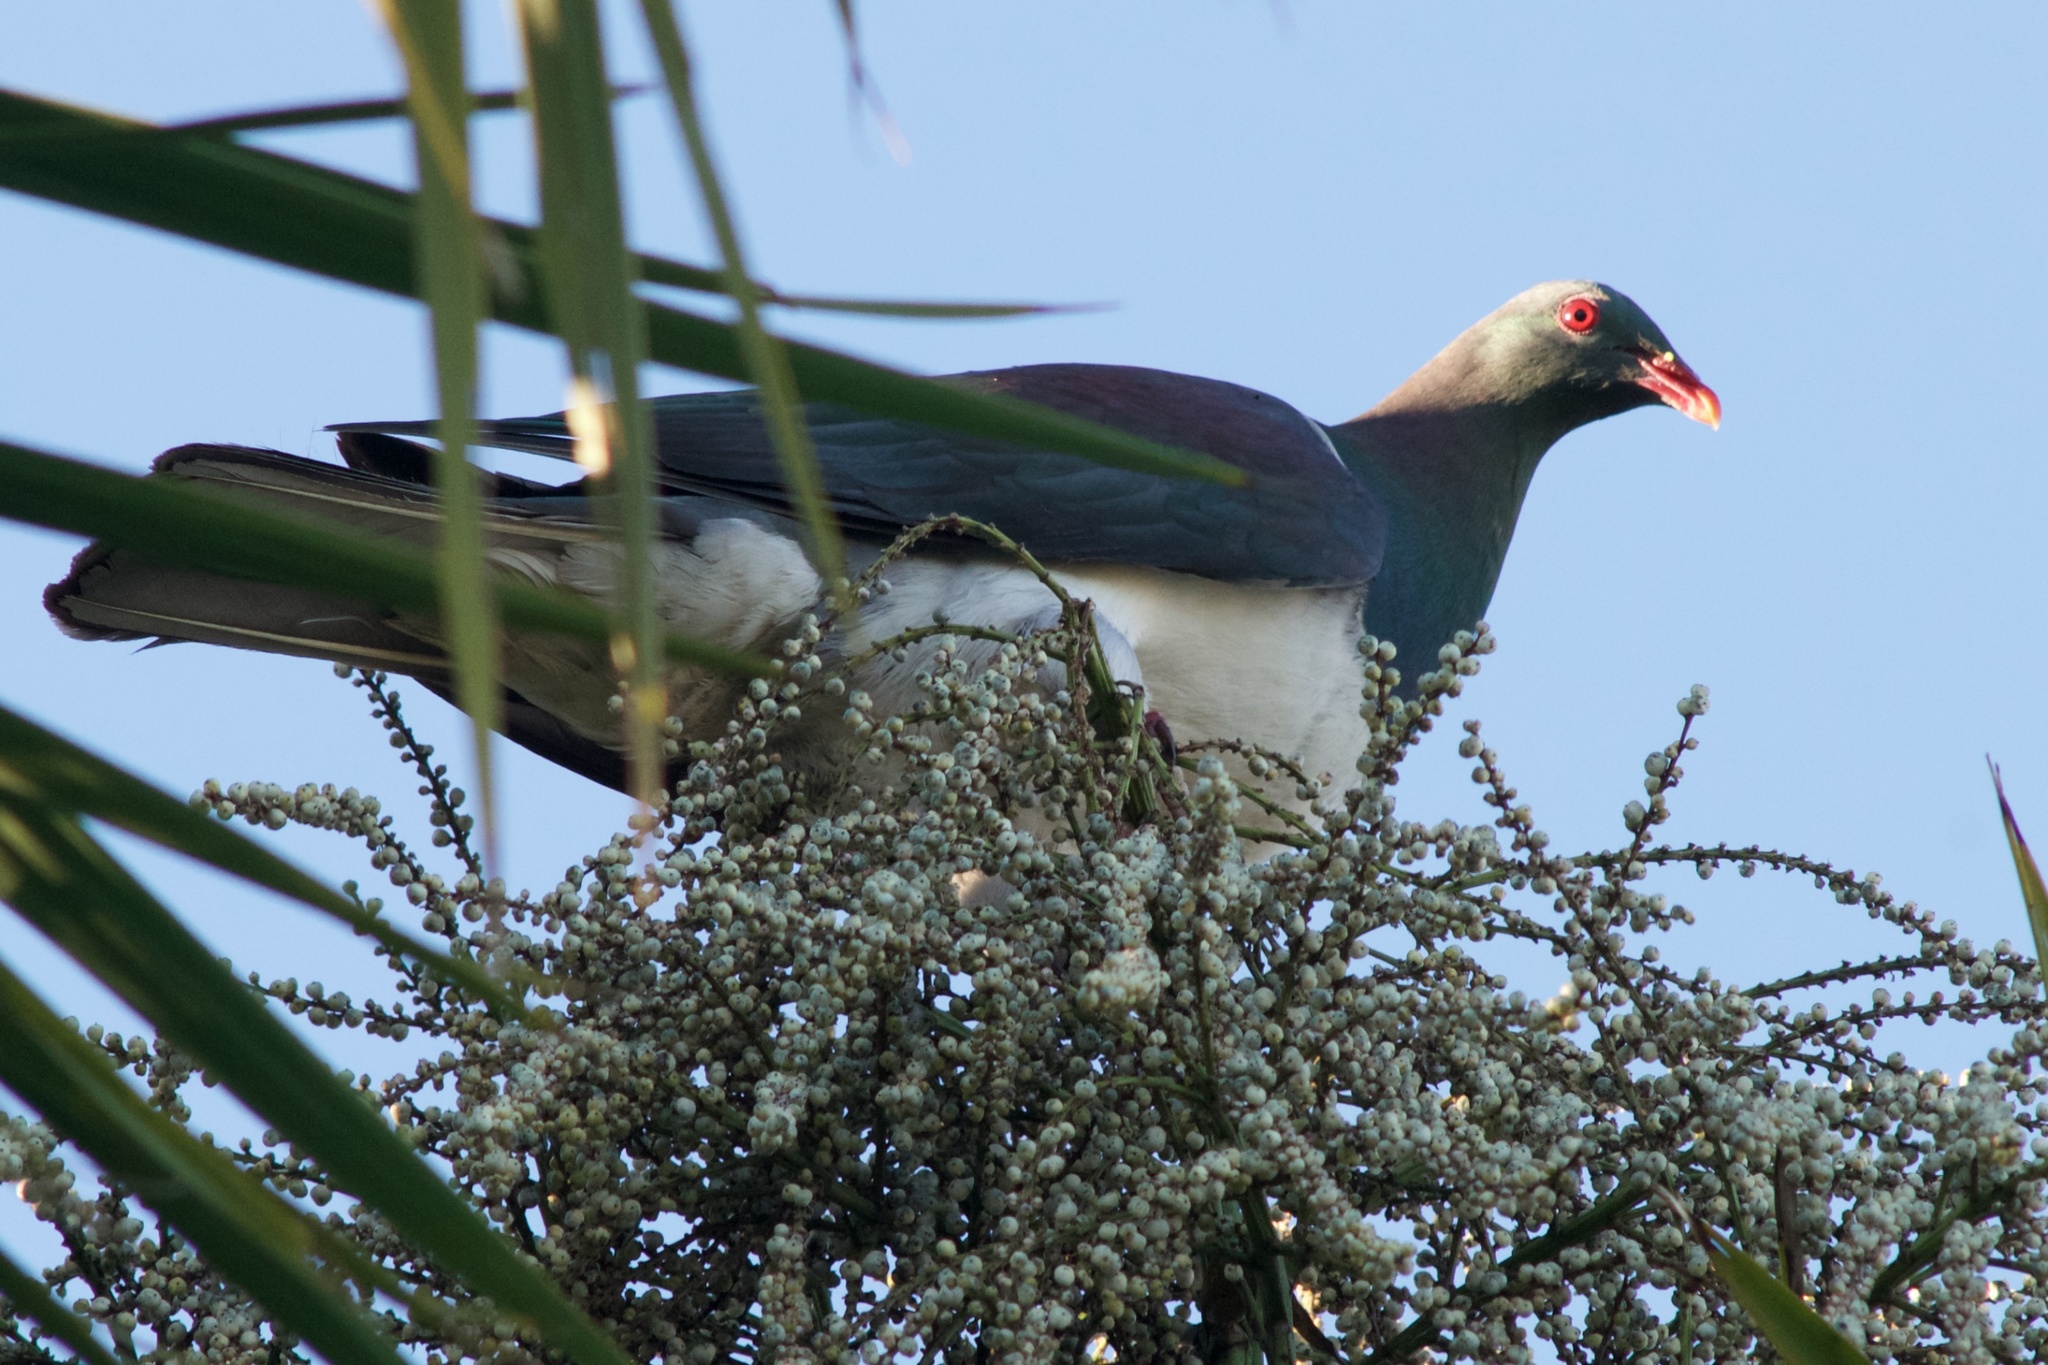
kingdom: Animalia
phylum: Chordata
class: Aves
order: Columbiformes
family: Columbidae
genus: Hemiphaga
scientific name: Hemiphaga novaeseelandiae
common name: New zealand pigeon
